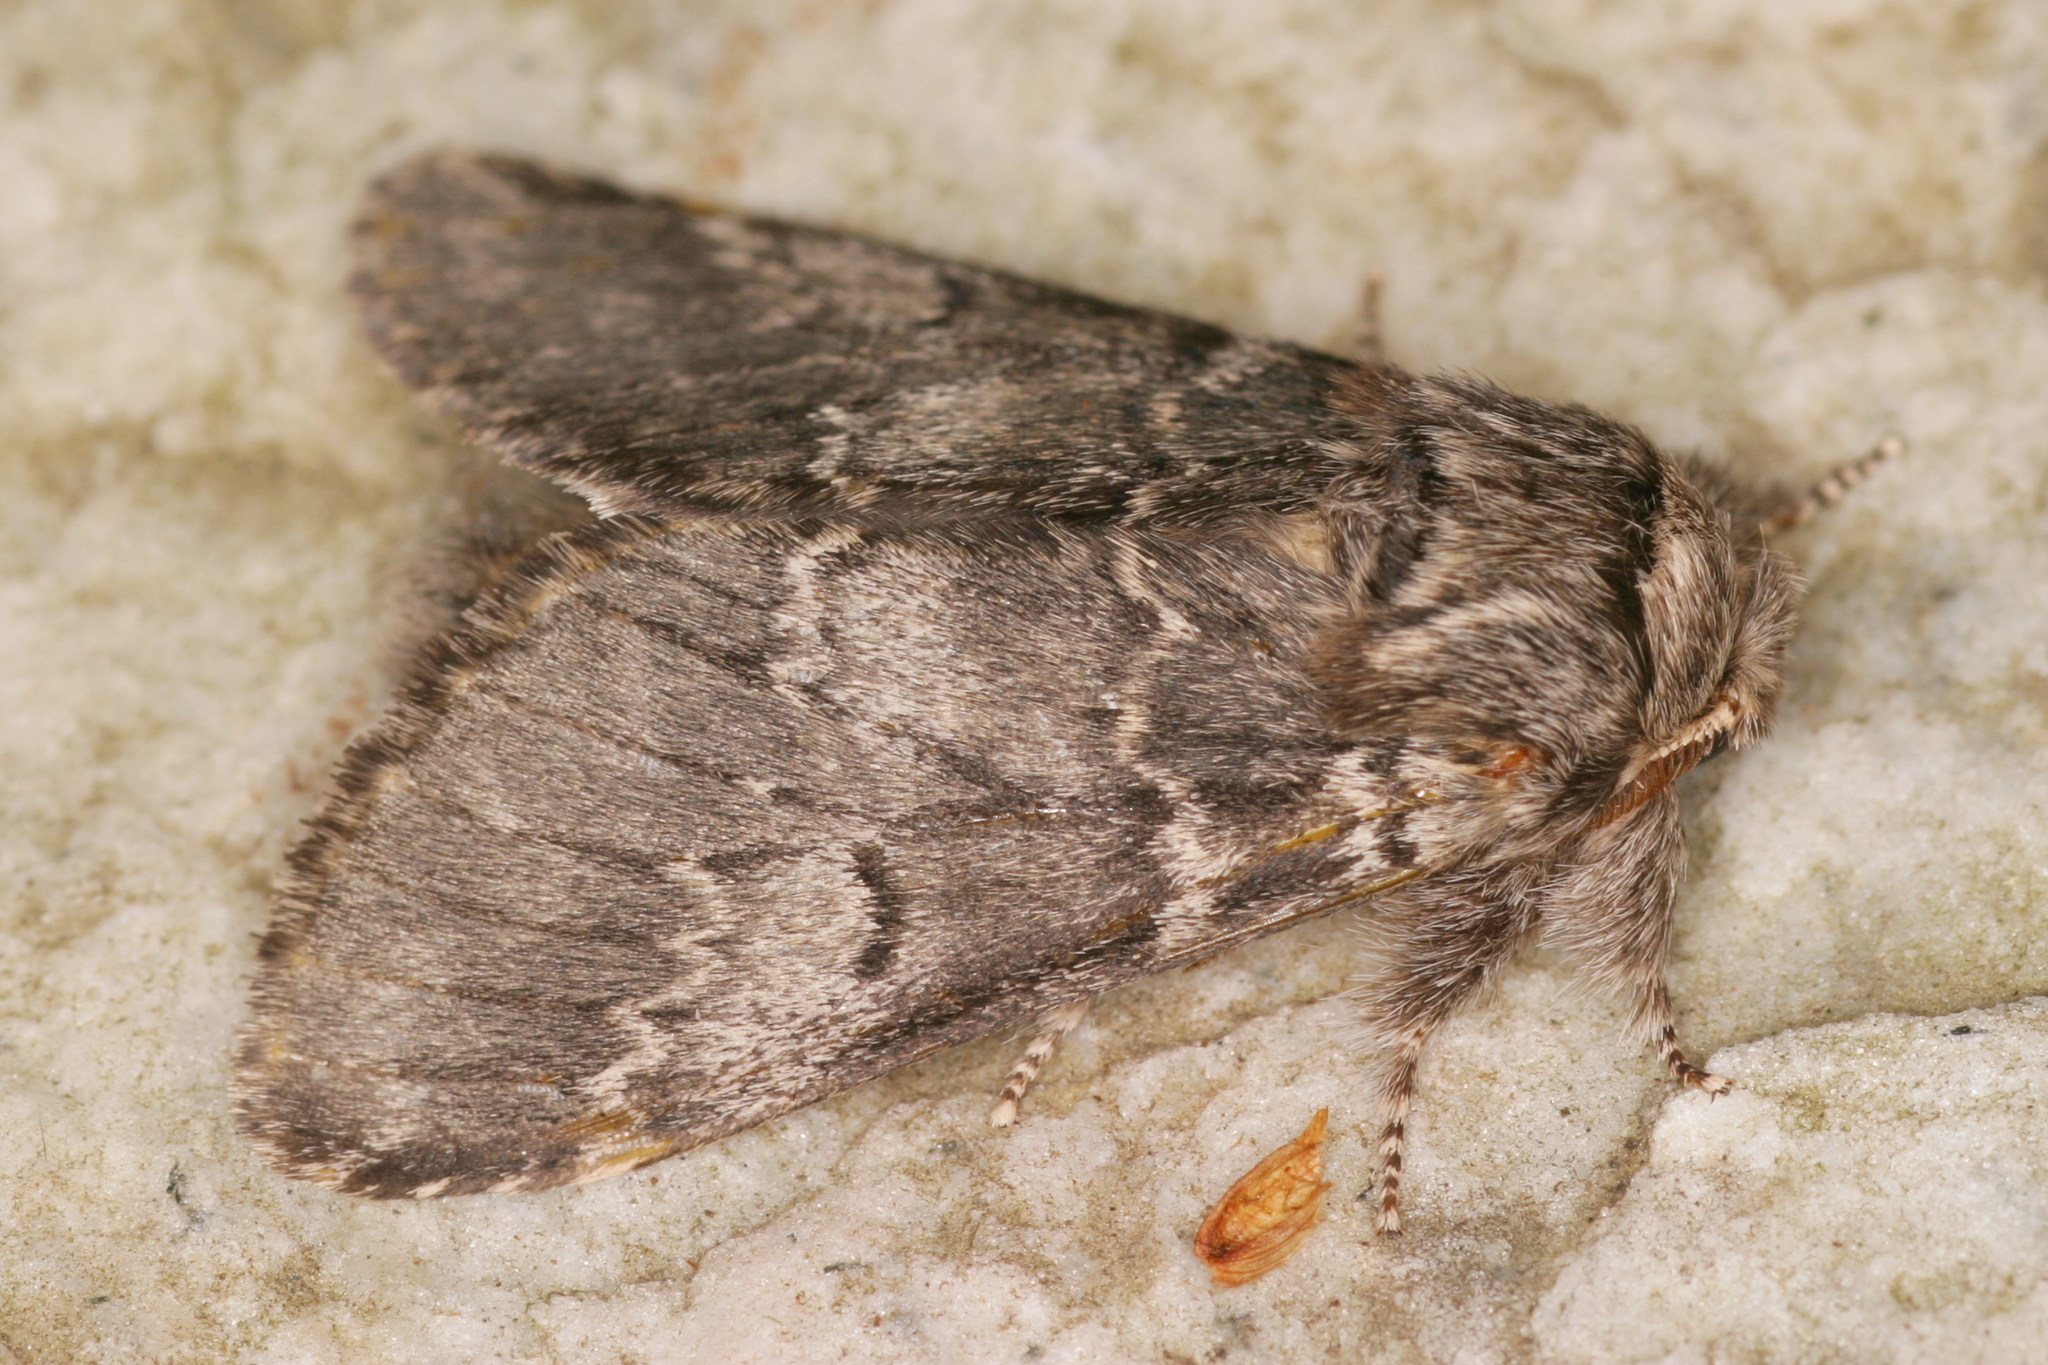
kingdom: Animalia
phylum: Arthropoda
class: Insecta
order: Lepidoptera
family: Notodontidae
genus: Drymonia
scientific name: Drymonia ruficornis
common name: Lunar marbled brown
